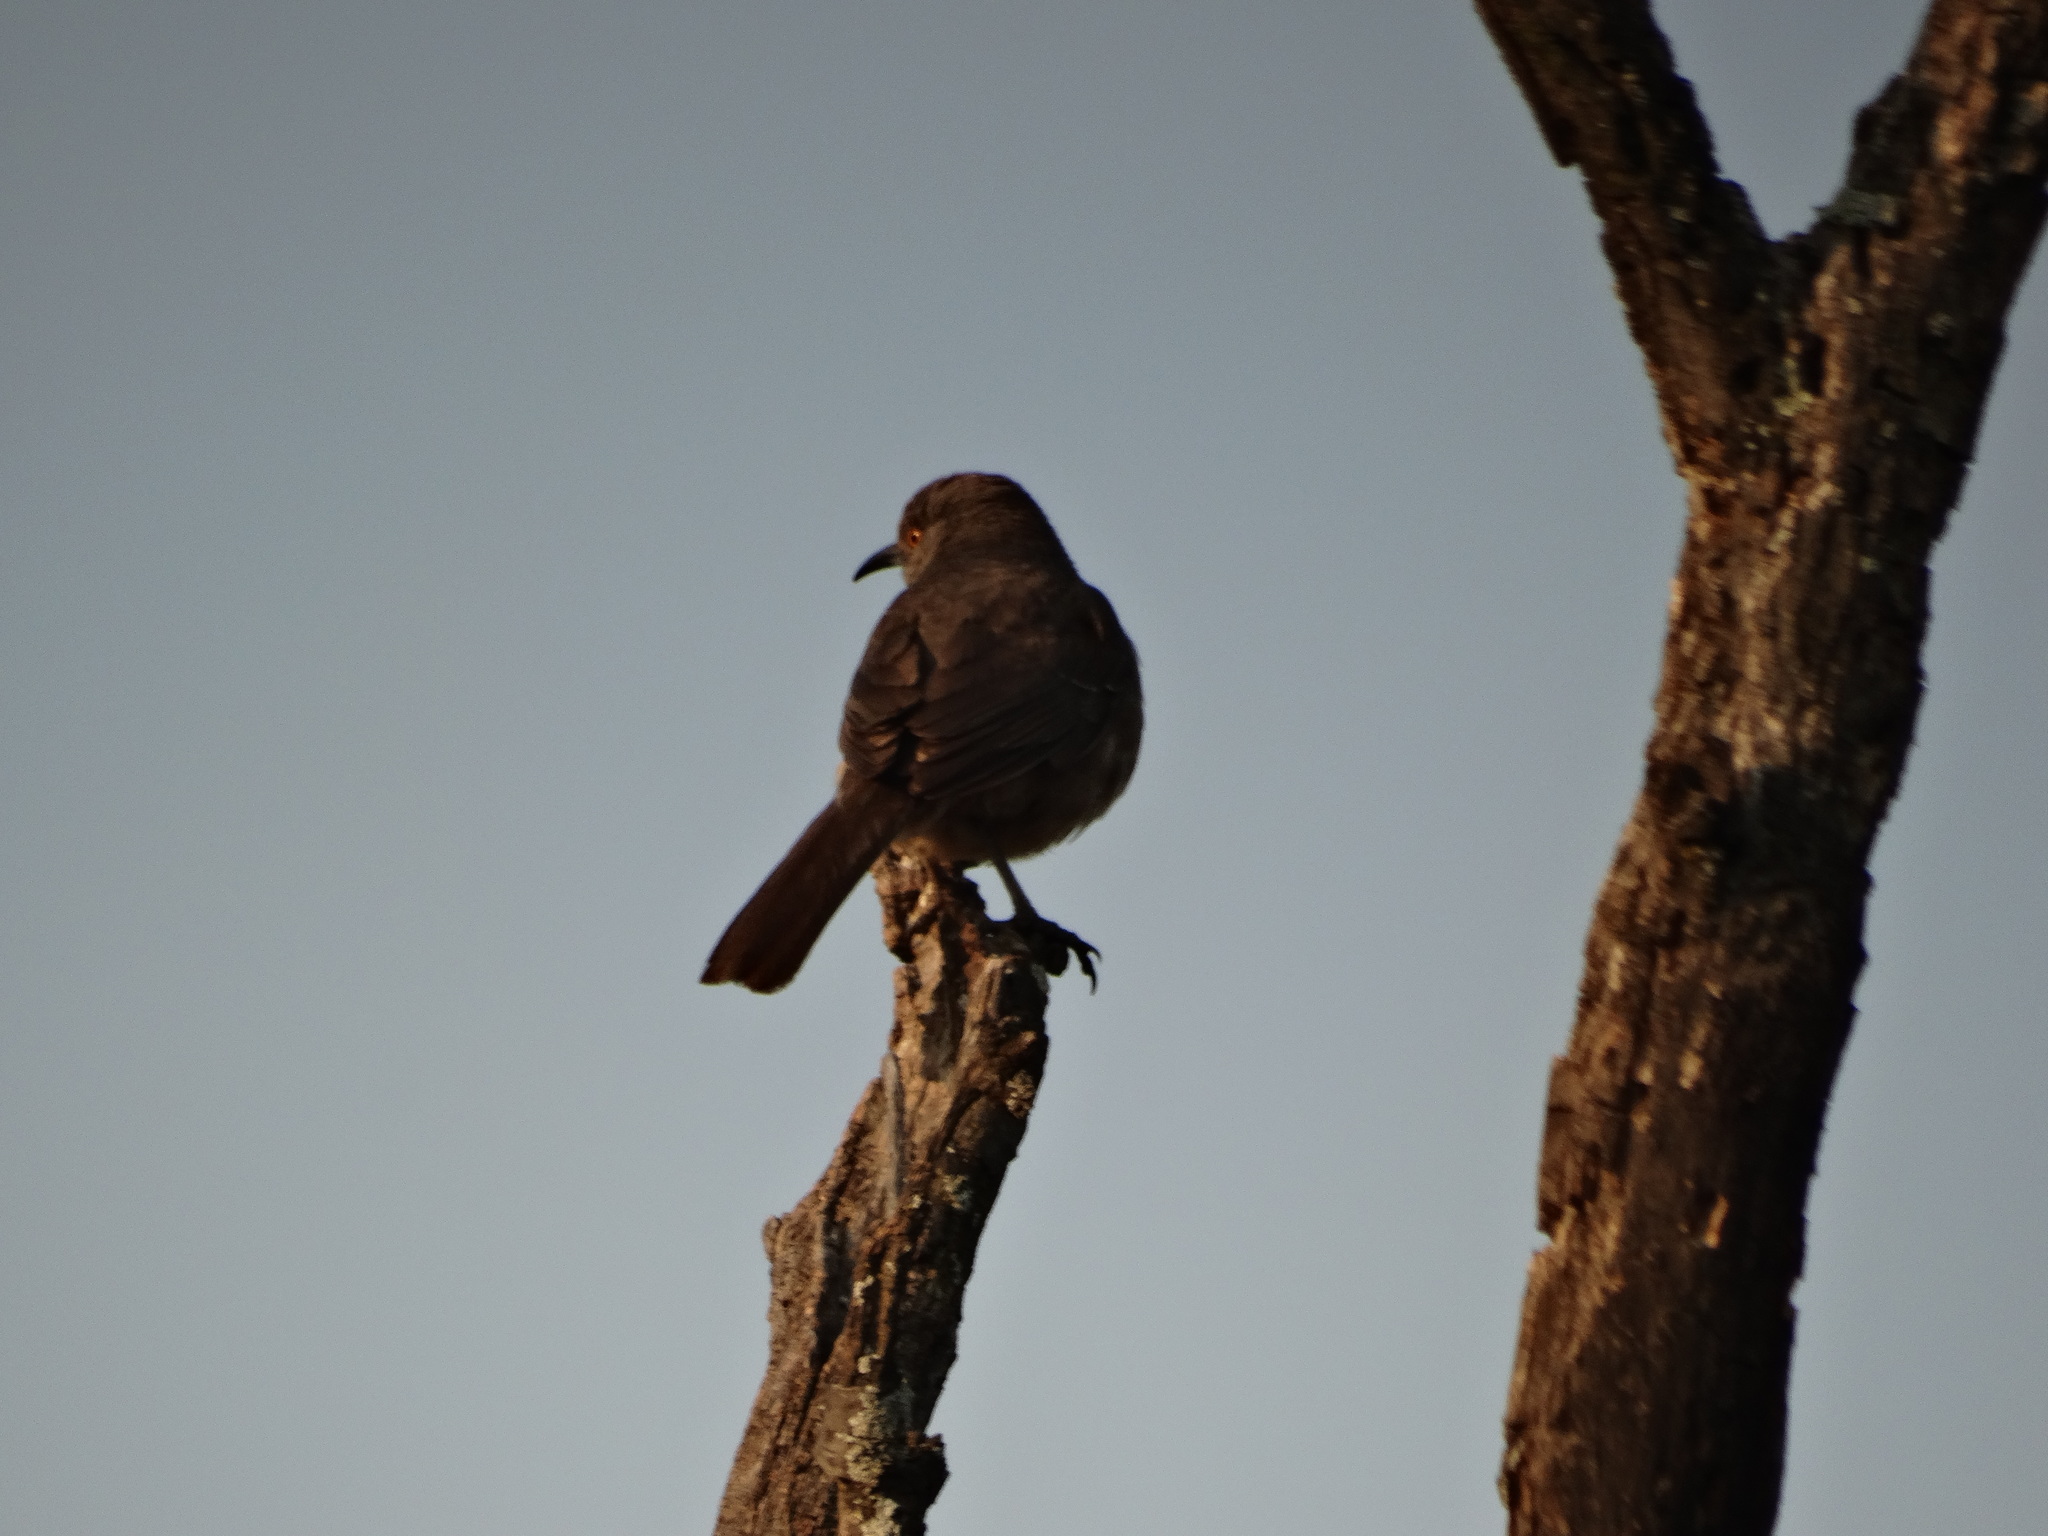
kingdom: Animalia
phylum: Chordata
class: Aves
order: Passeriformes
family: Mimidae
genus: Toxostoma
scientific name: Toxostoma curvirostre
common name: Curve-billed thrasher
